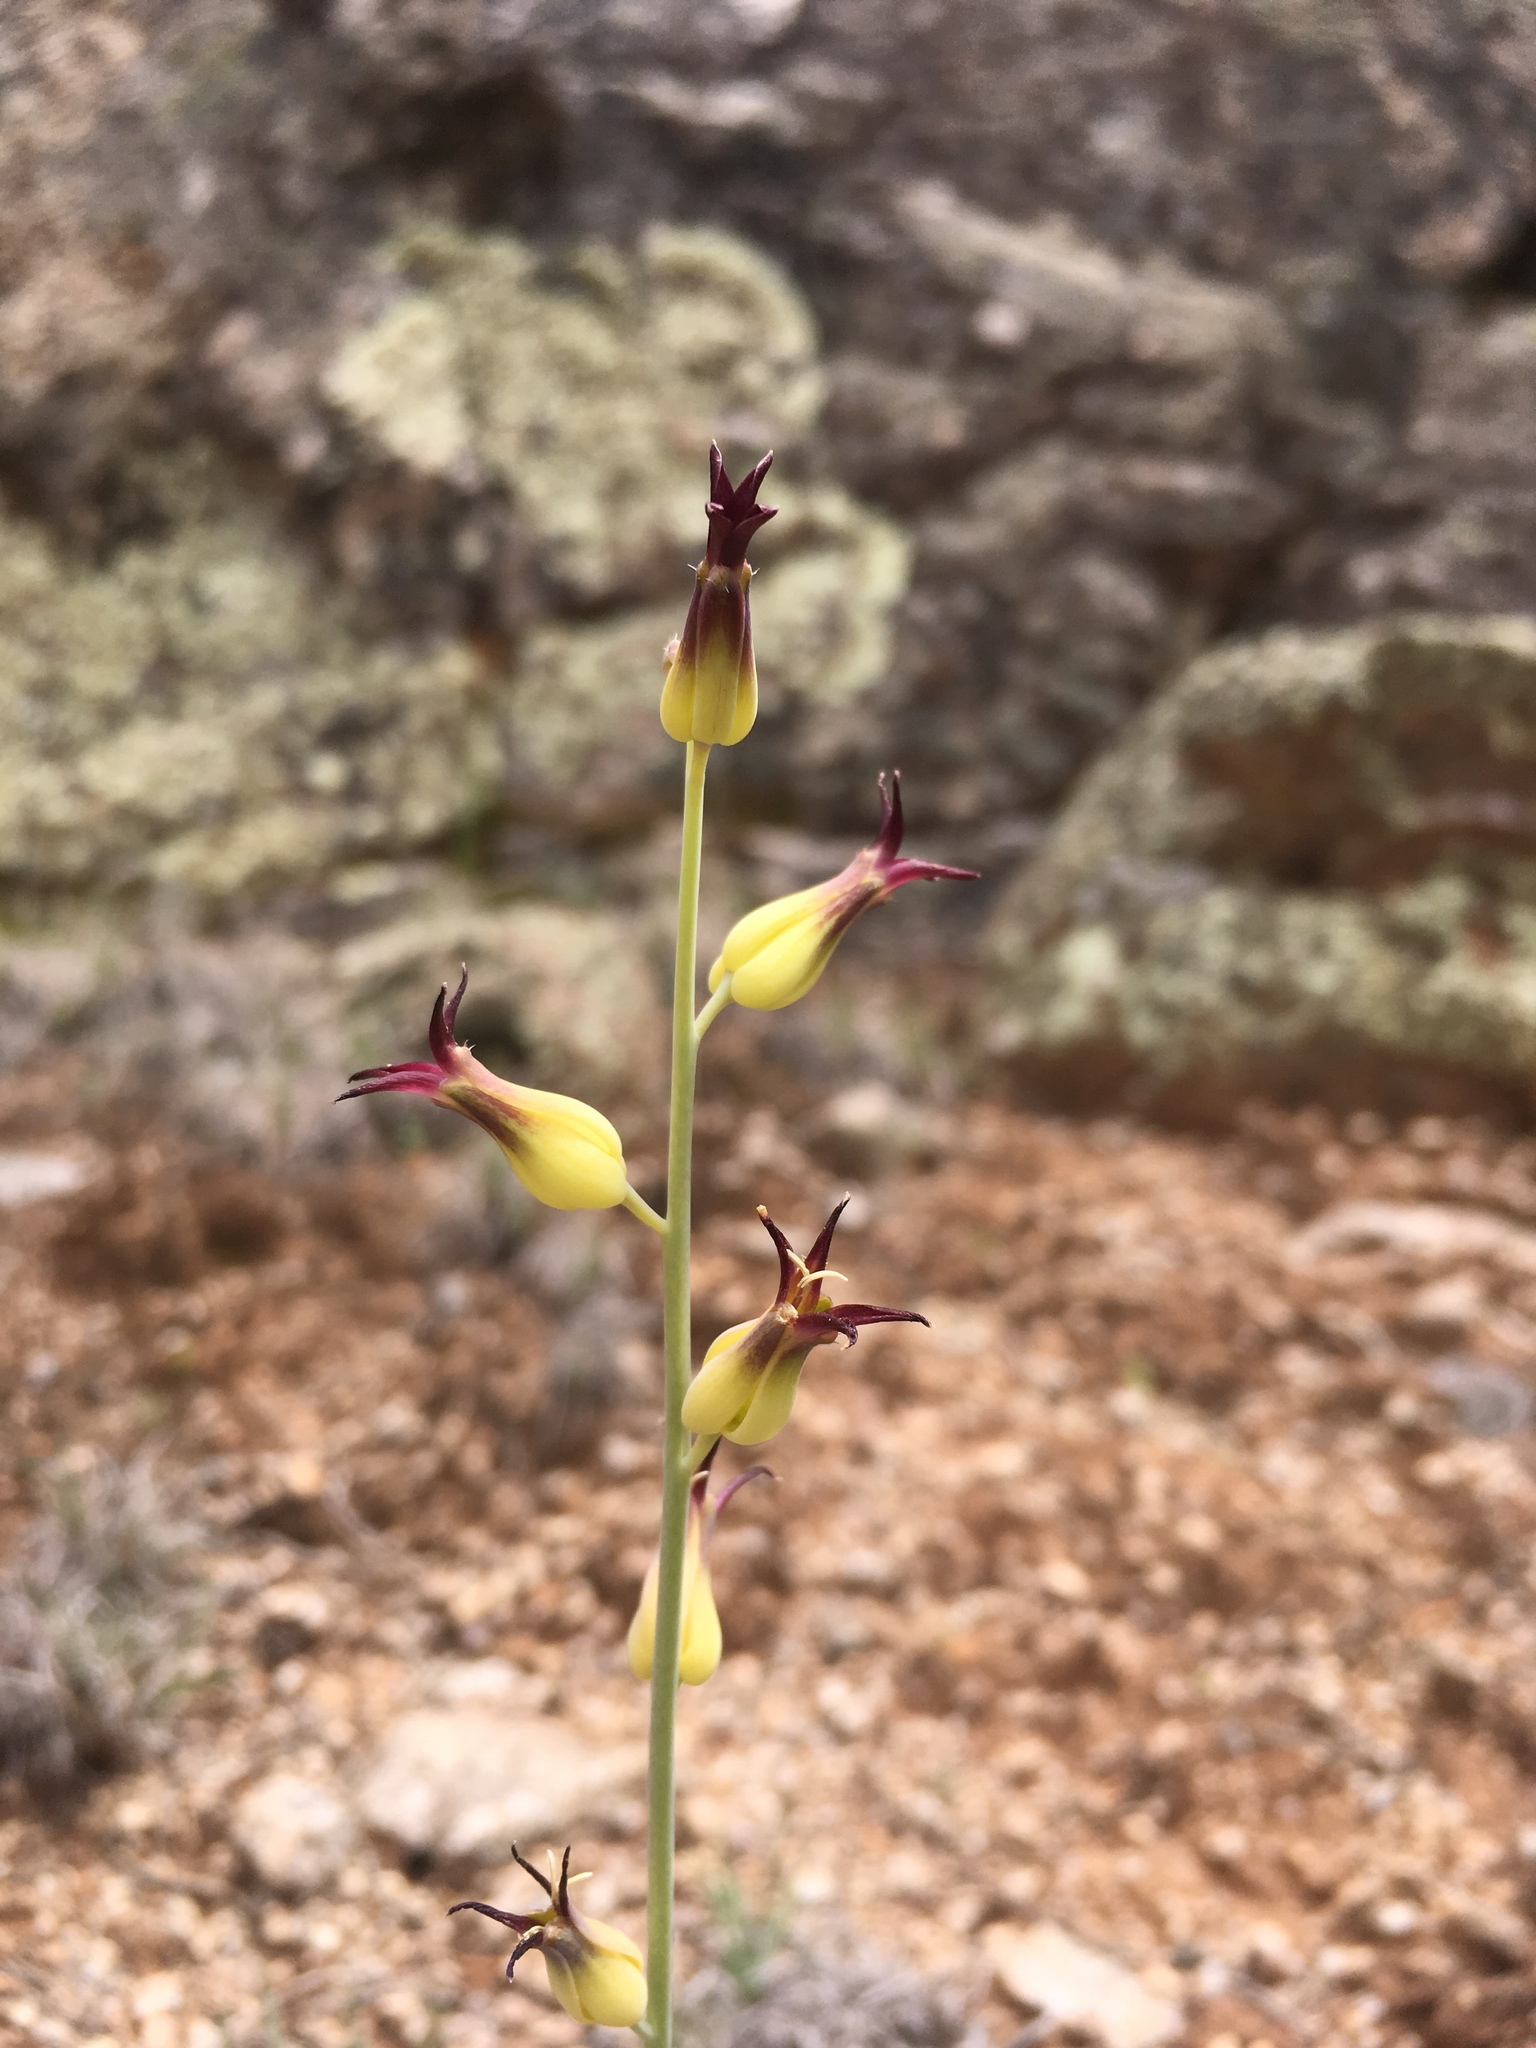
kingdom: Plantae
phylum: Tracheophyta
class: Magnoliopsida
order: Brassicales
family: Brassicaceae
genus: Streptanthus
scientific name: Streptanthus cordatus
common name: Heart-leaf jewel-flower
